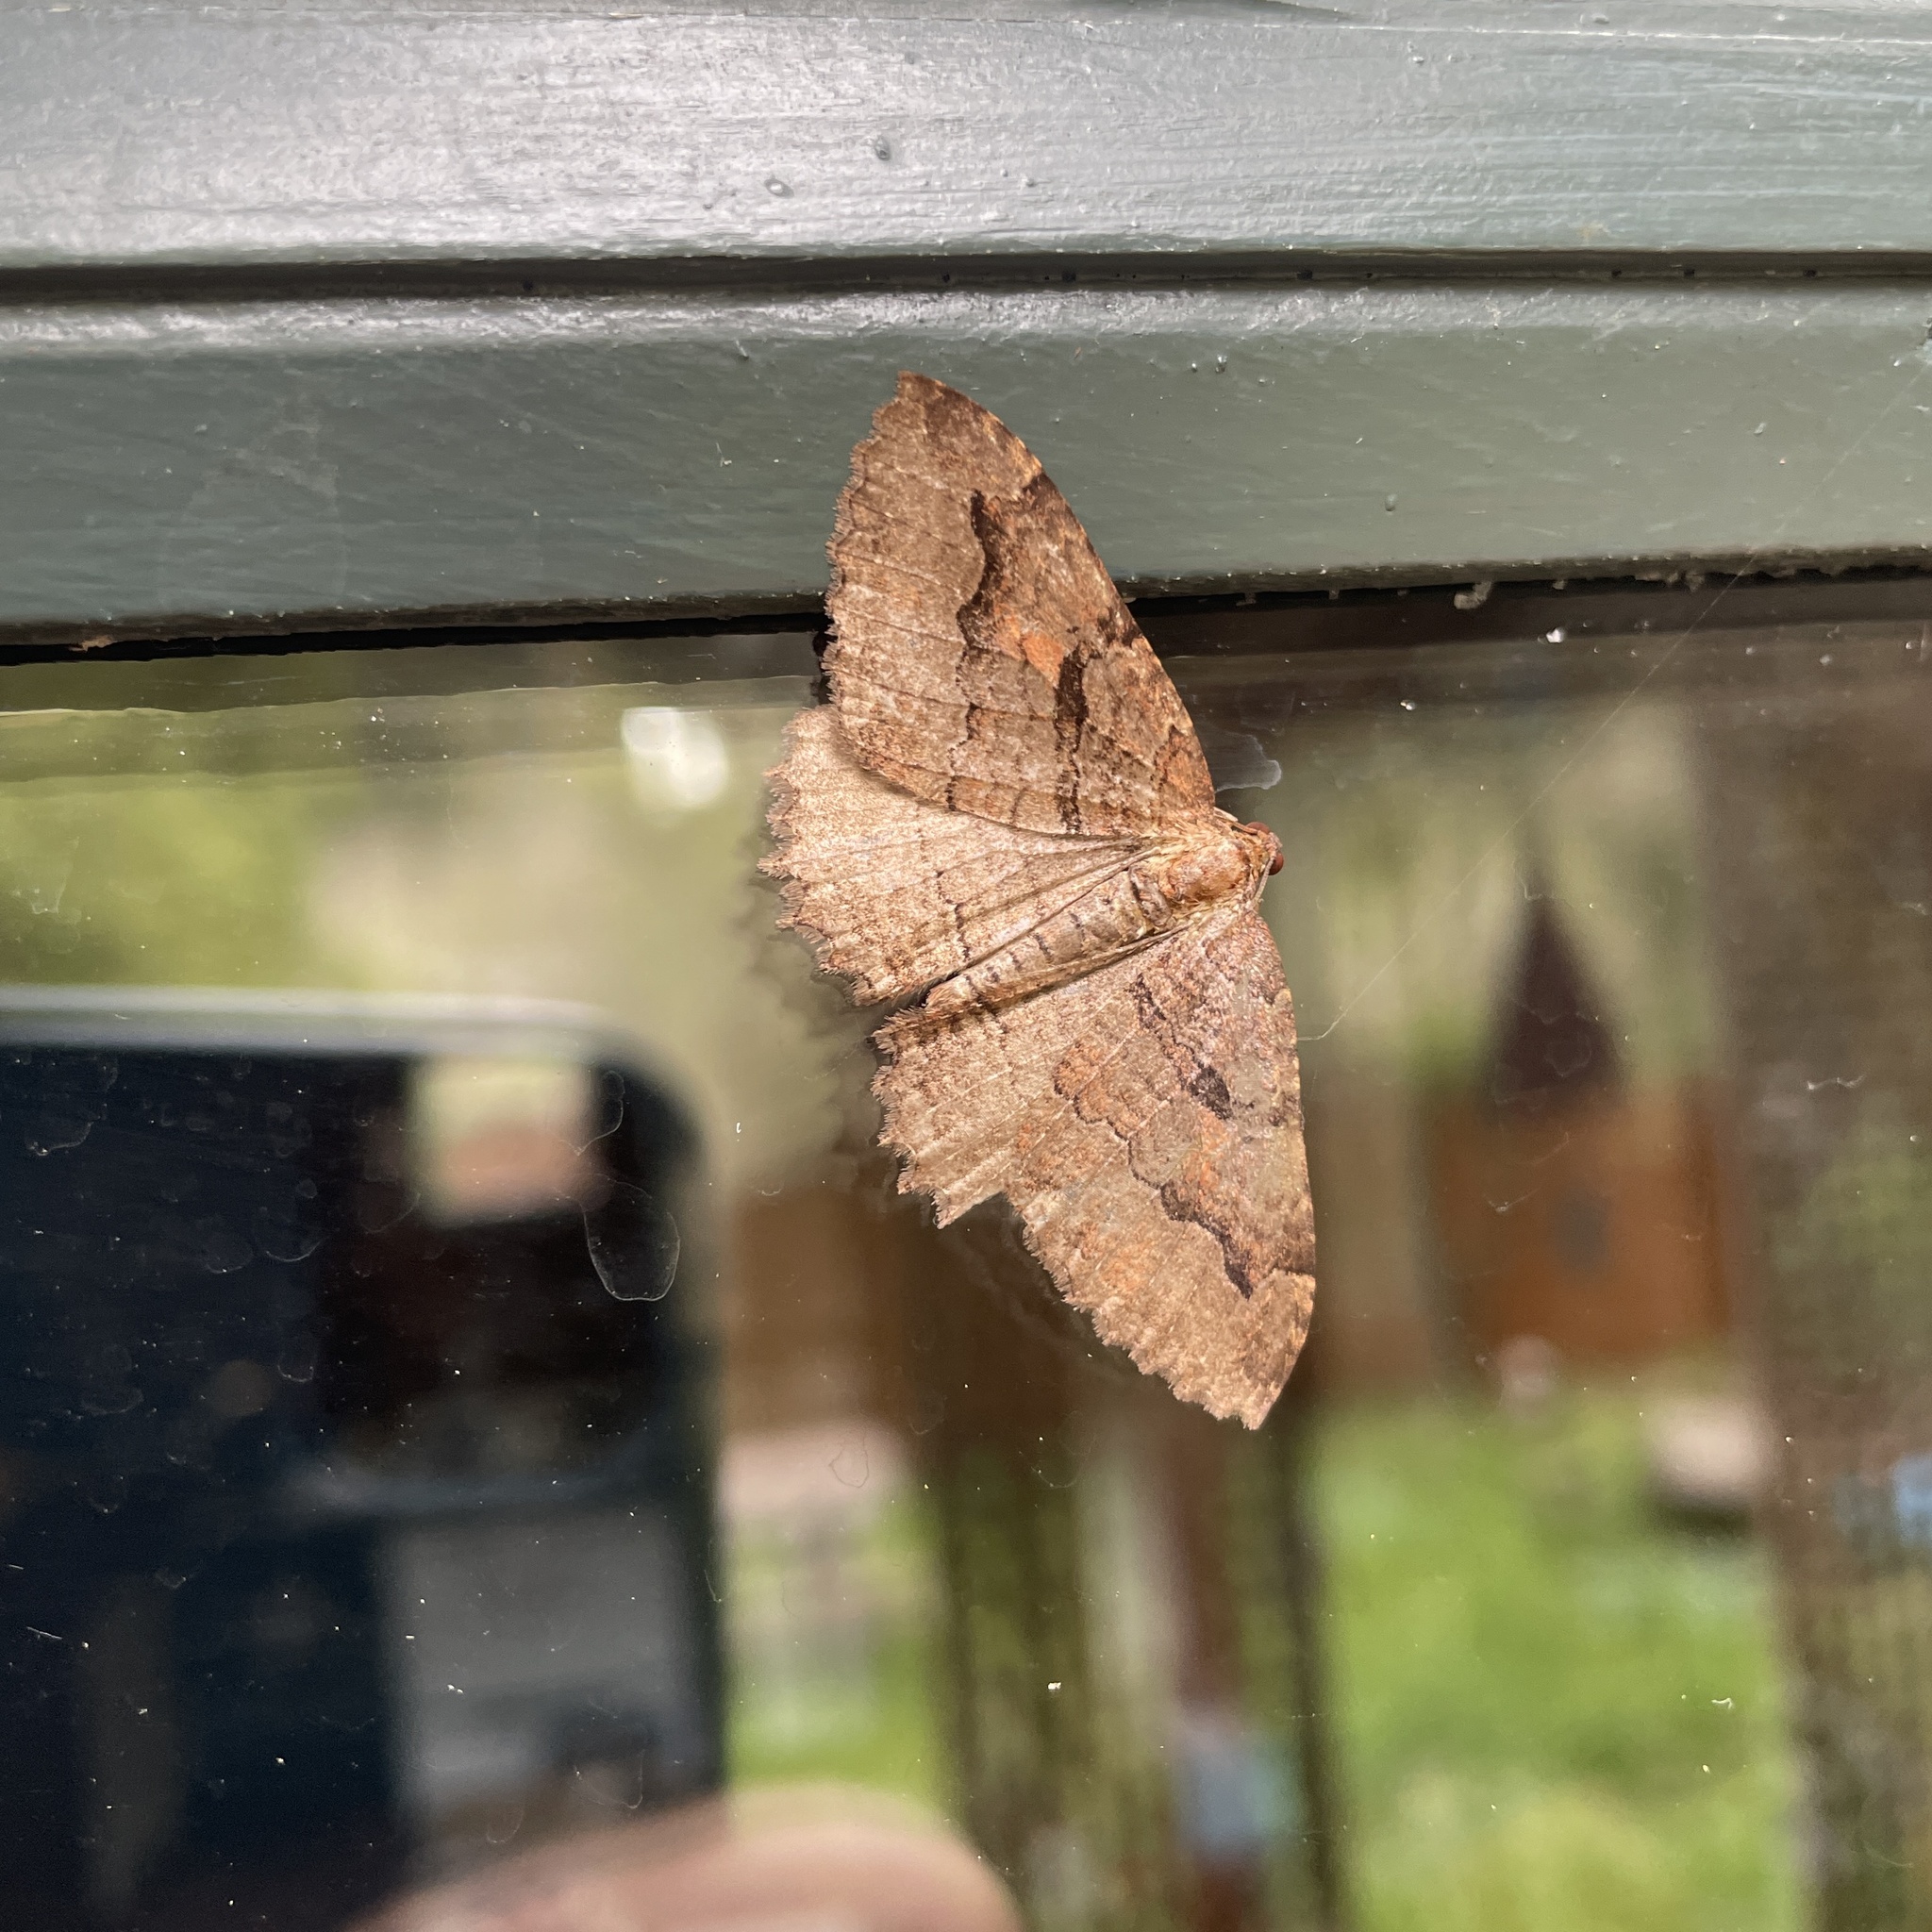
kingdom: Animalia
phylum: Arthropoda
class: Insecta
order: Lepidoptera
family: Geometridae
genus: Triphosa
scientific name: Triphosa haesitata
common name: Tissue moth
